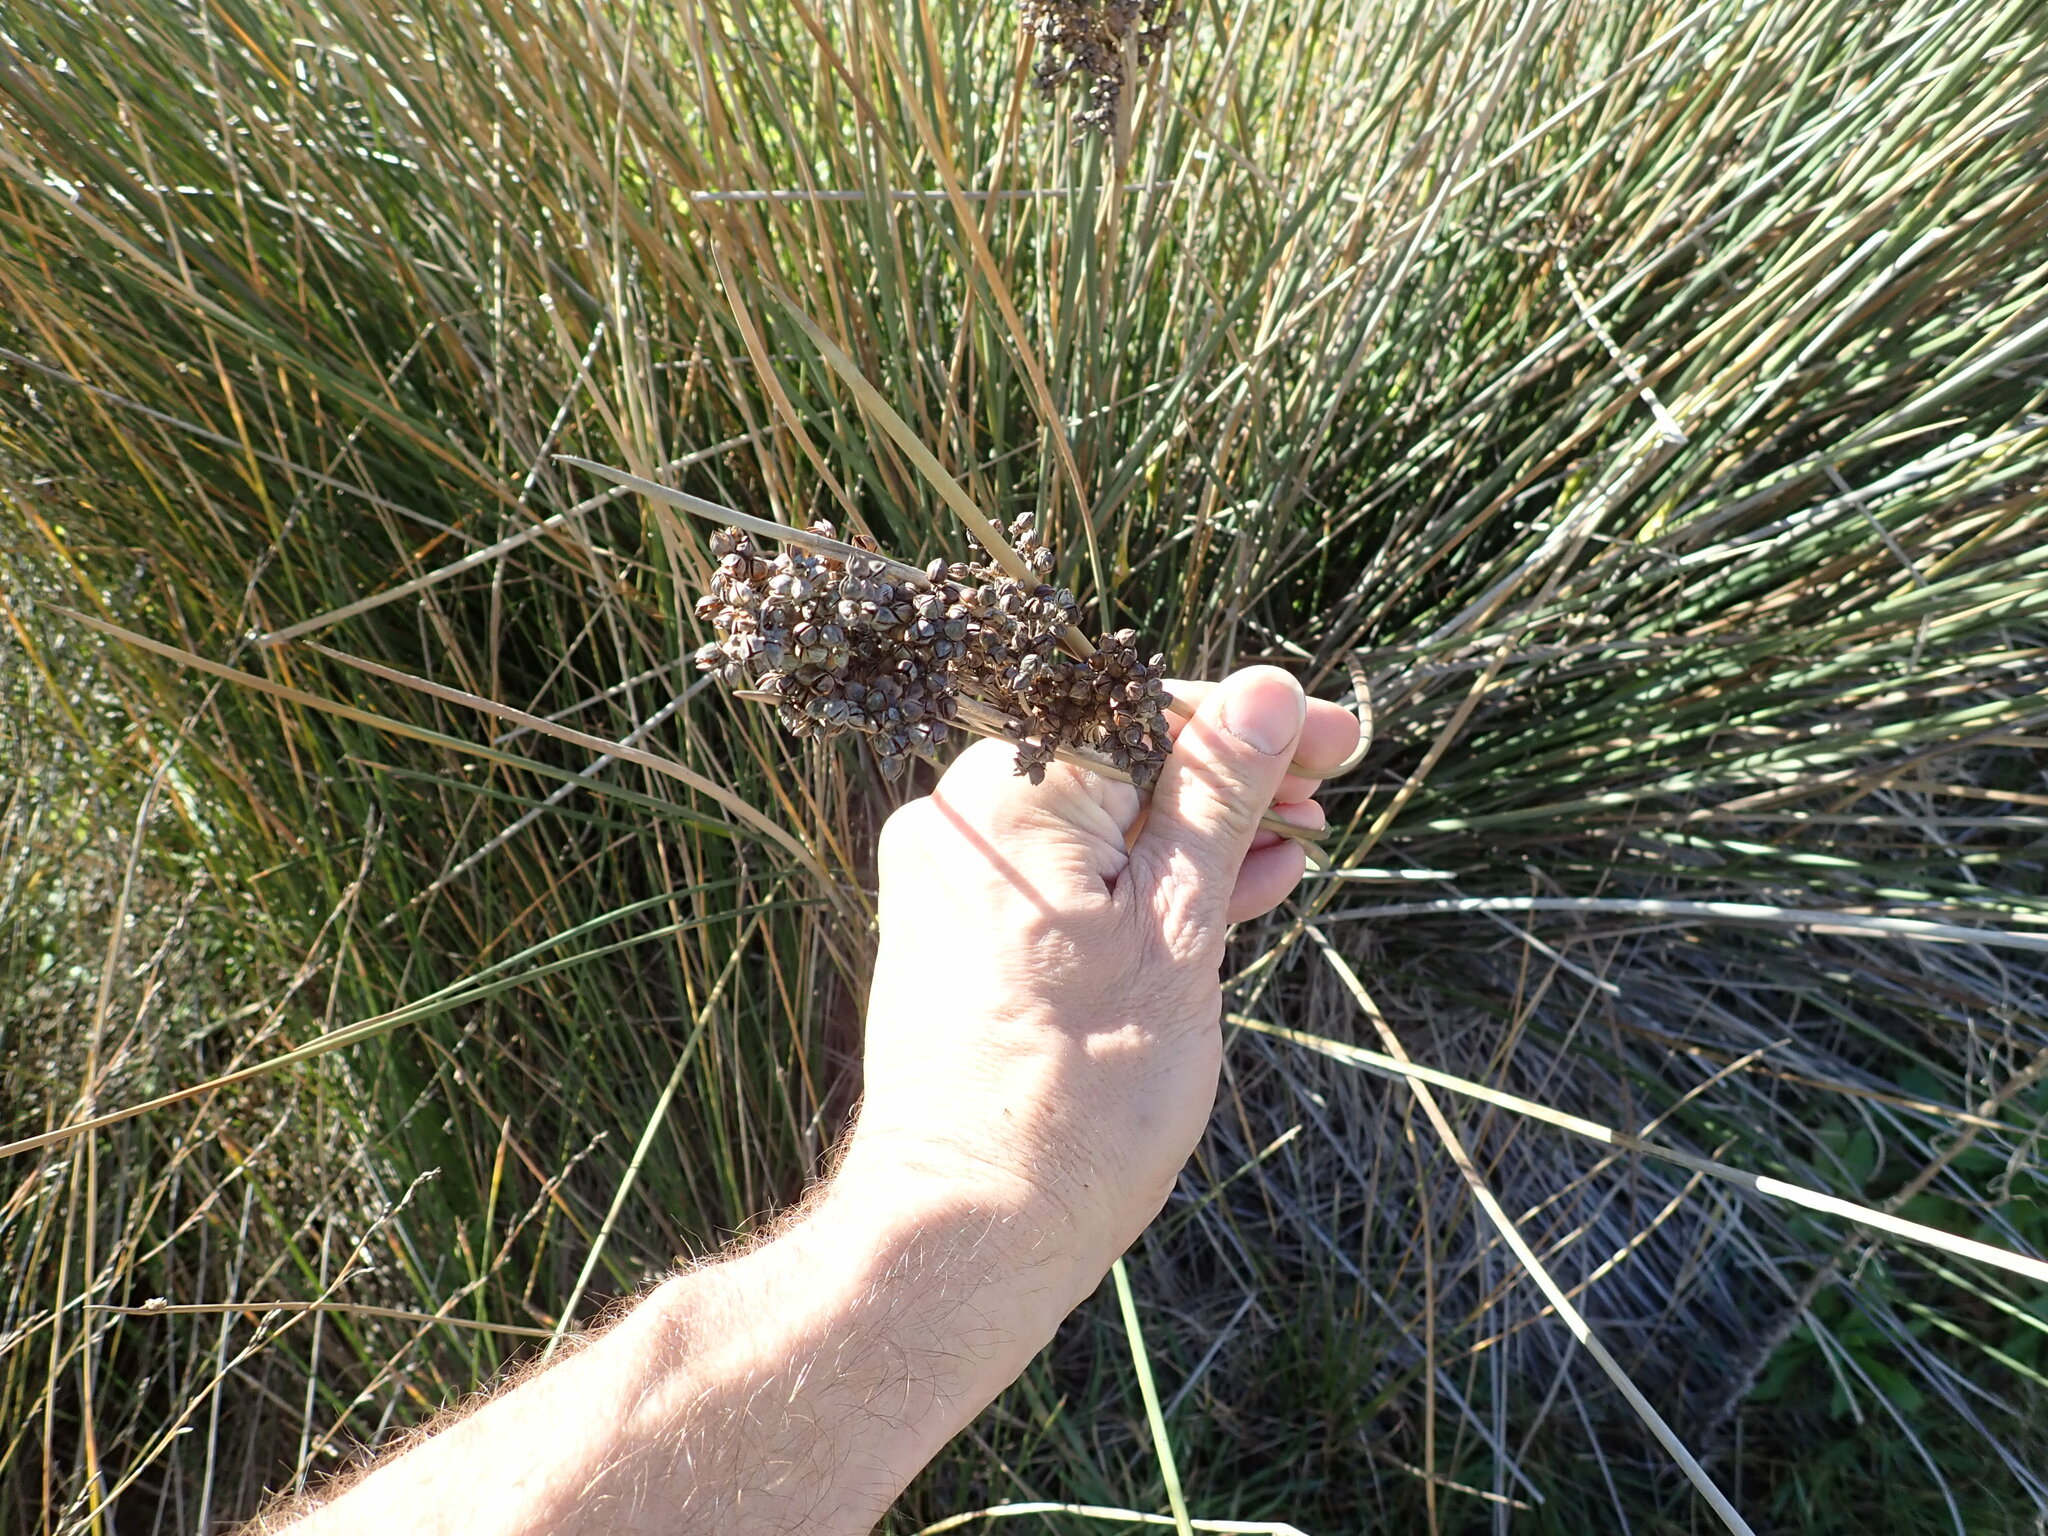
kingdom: Plantae
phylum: Tracheophyta
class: Liliopsida
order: Poales
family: Juncaceae
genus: Juncus
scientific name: Juncus acutus
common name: Sharp rush
